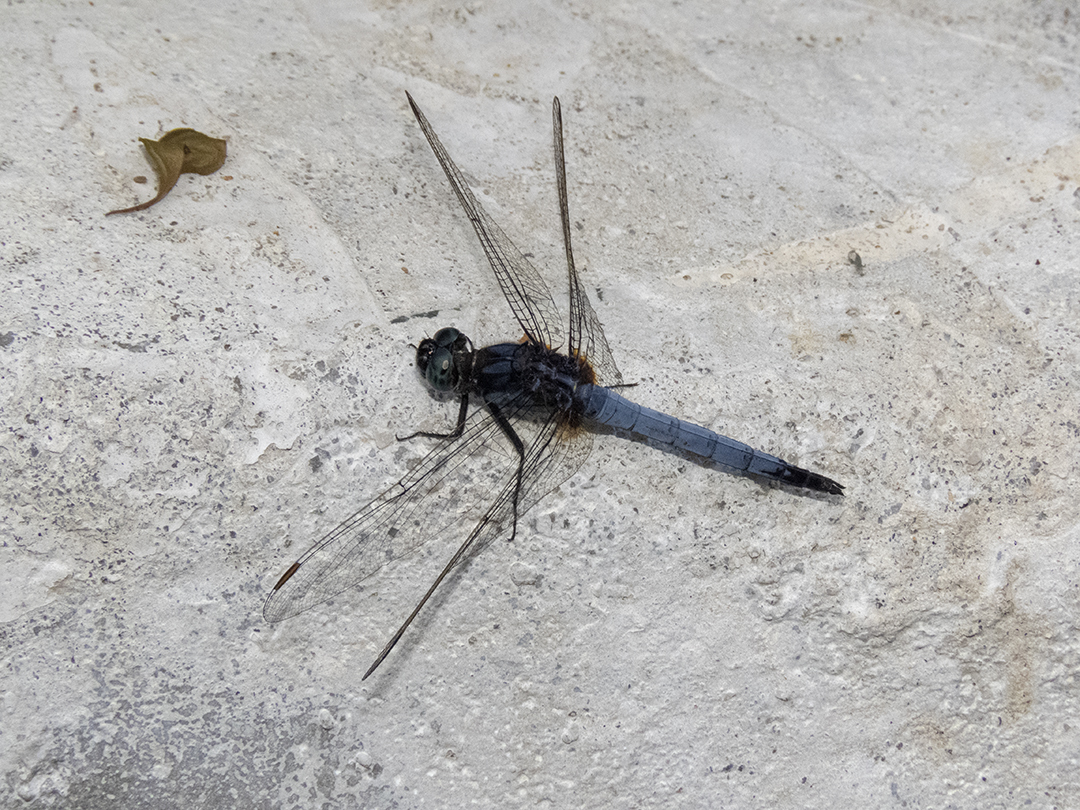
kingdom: Animalia
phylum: Arthropoda
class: Insecta
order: Odonata
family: Libellulidae
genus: Orthetrum
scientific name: Orthetrum glaucum
